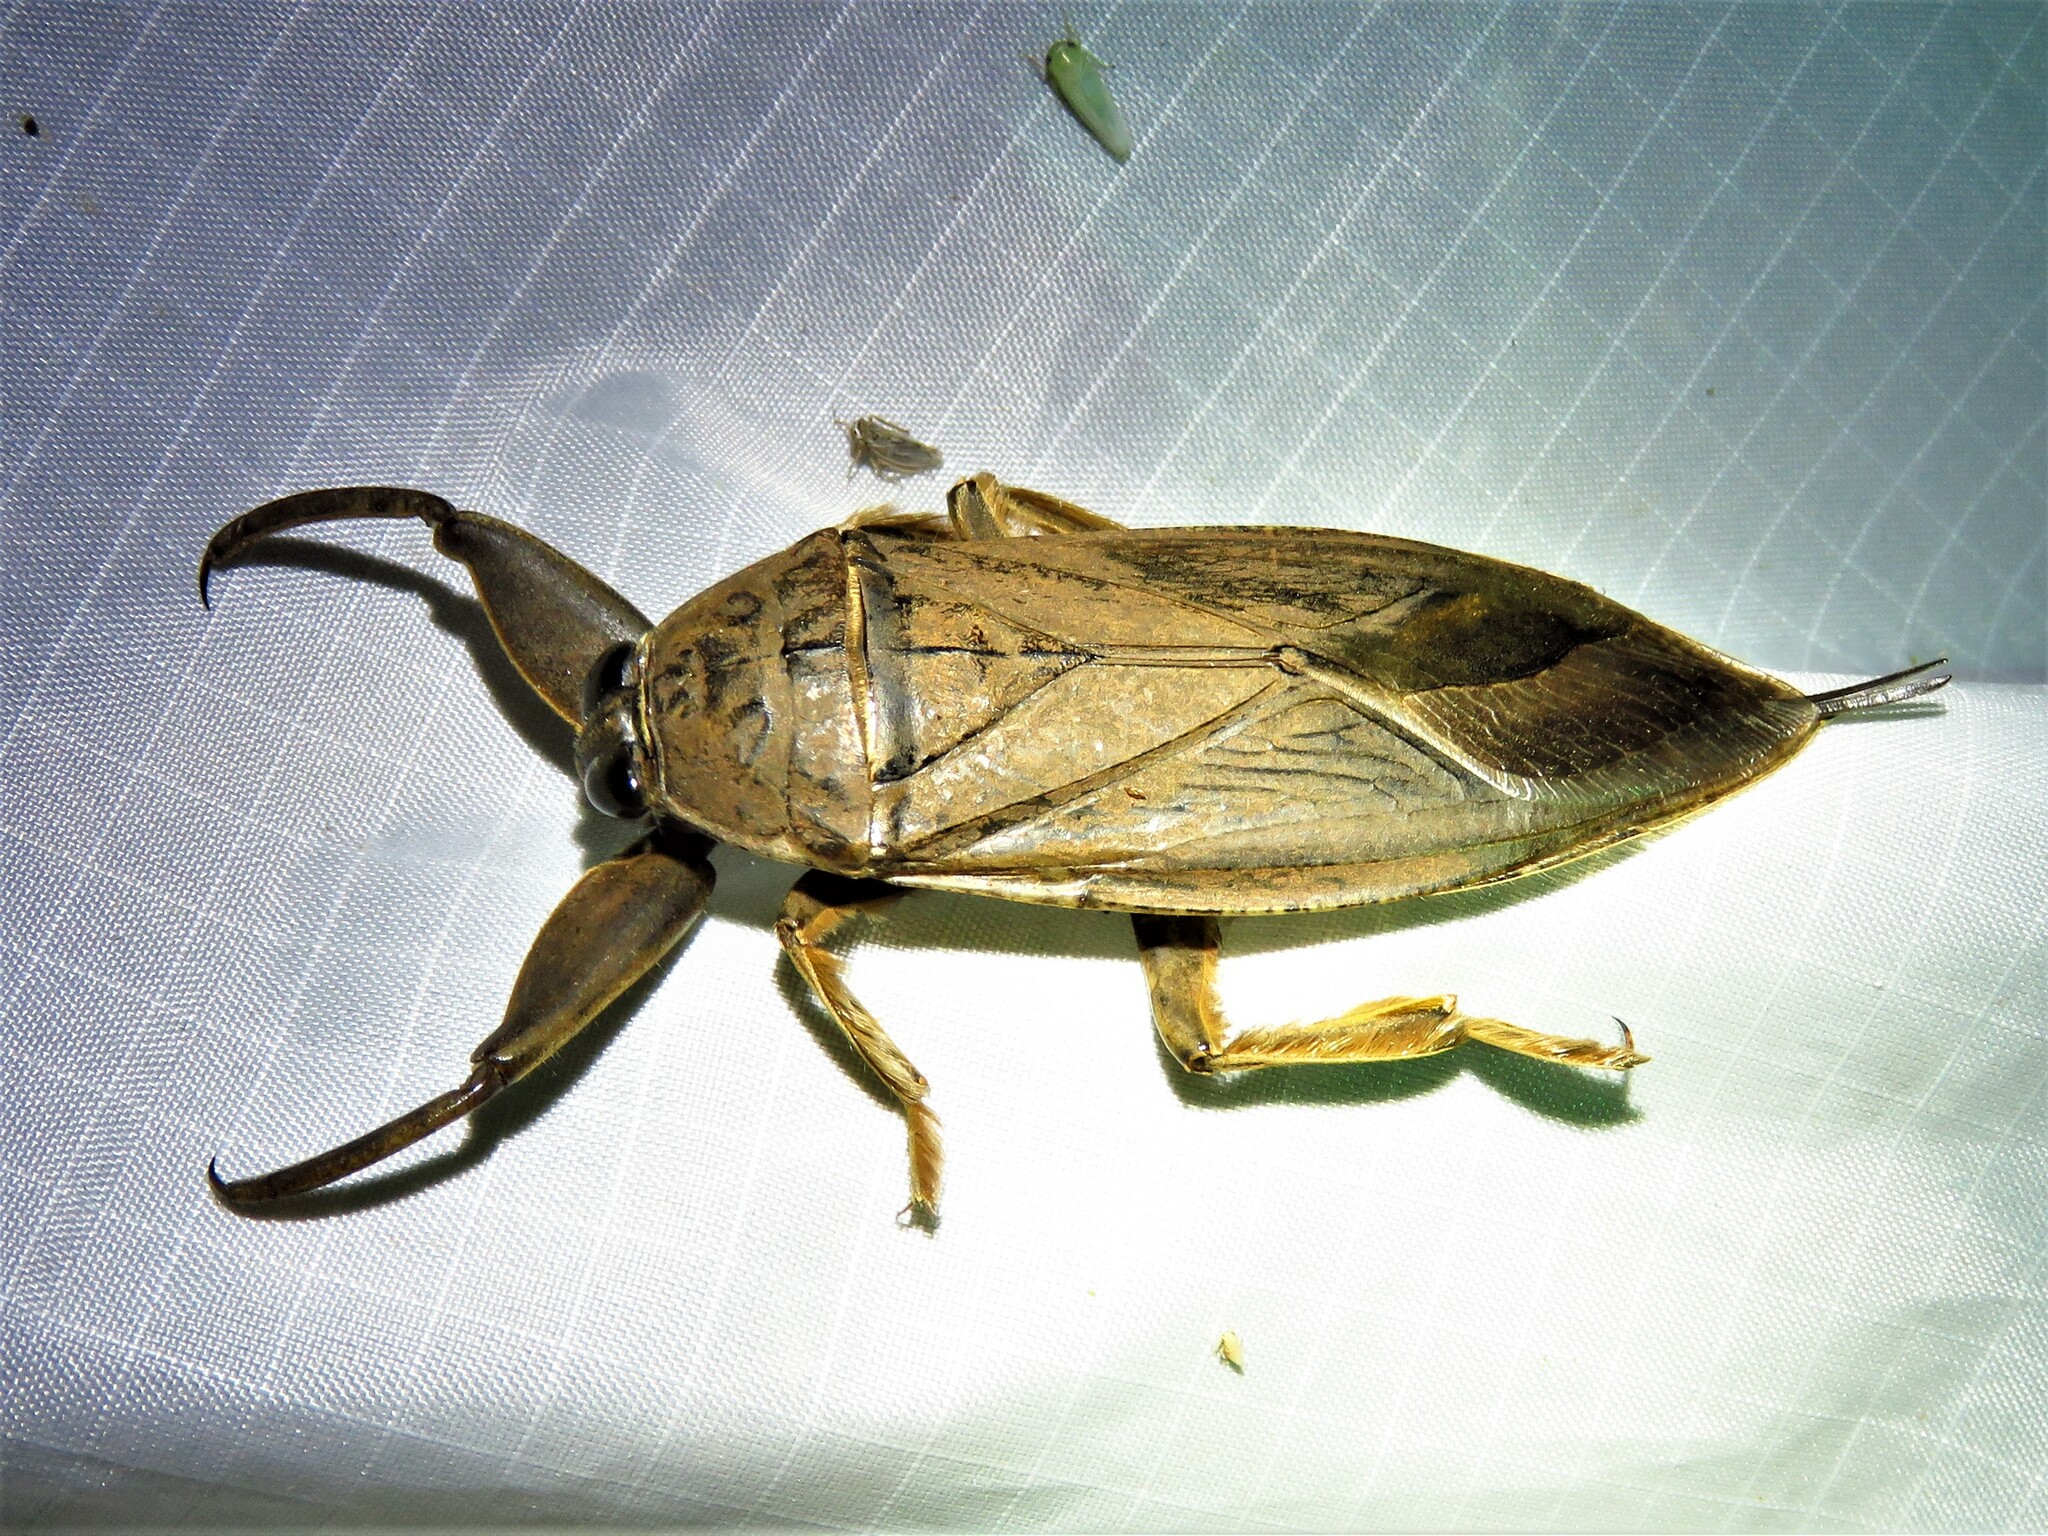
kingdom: Animalia
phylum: Arthropoda
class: Insecta
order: Hemiptera
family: Belostomatidae
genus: Lethocerus
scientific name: Lethocerus uhleri
